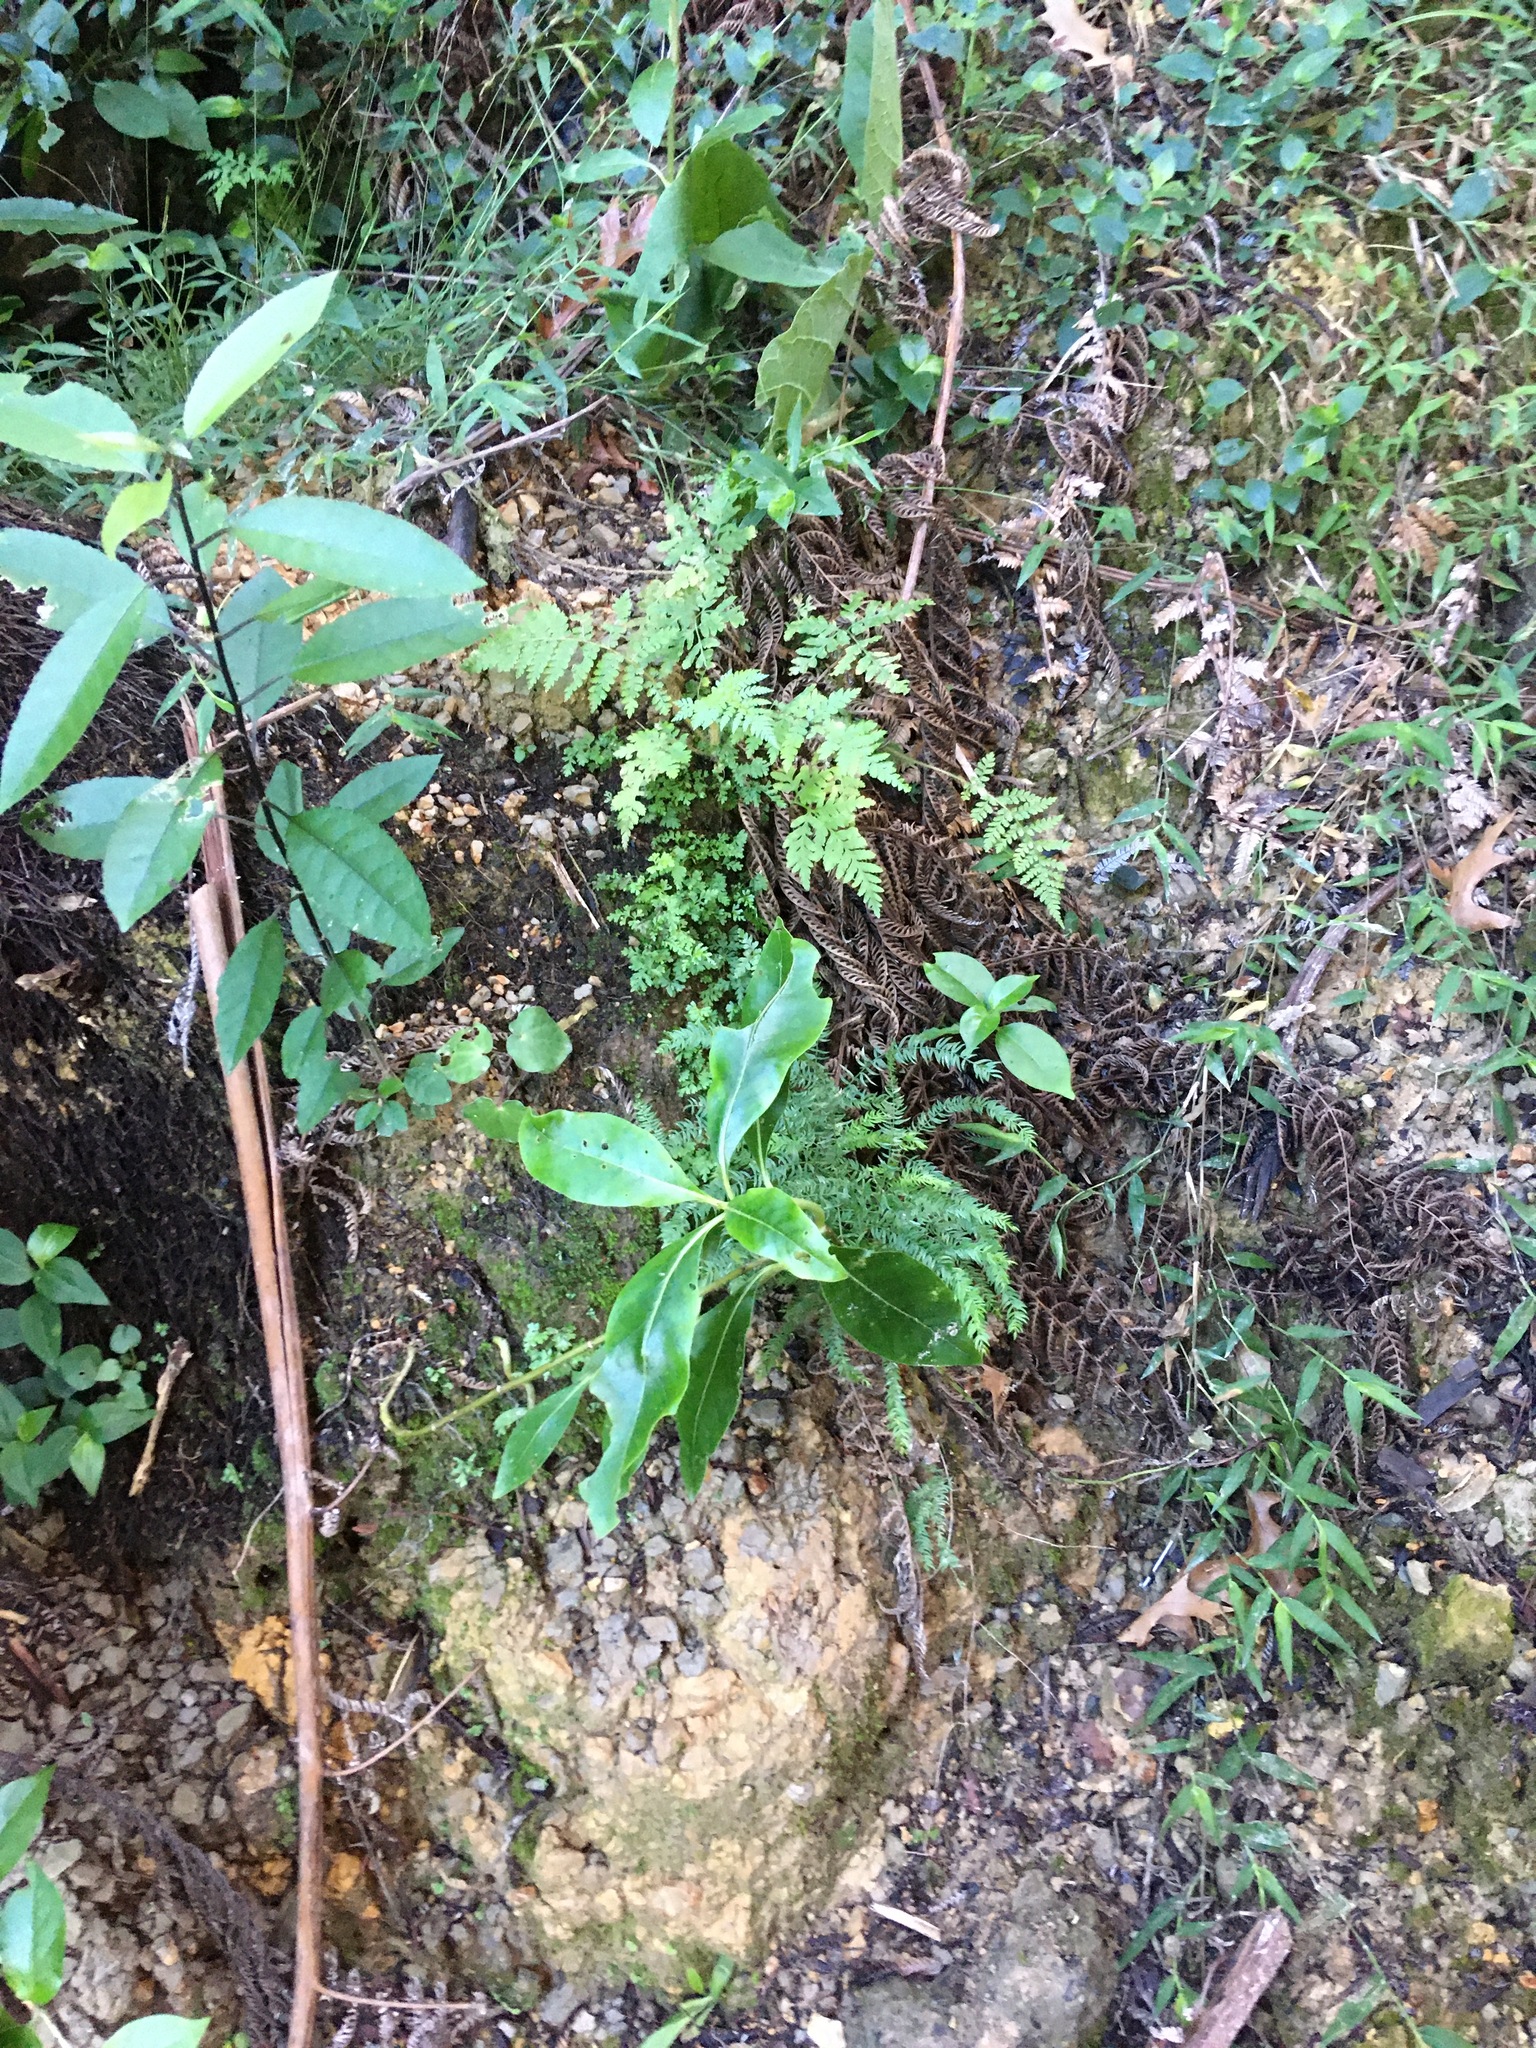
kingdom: Plantae
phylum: Tracheophyta
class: Magnoliopsida
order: Malpighiales
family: Violaceae
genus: Melicytus
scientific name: Melicytus ramiflorus
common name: Mahoe
